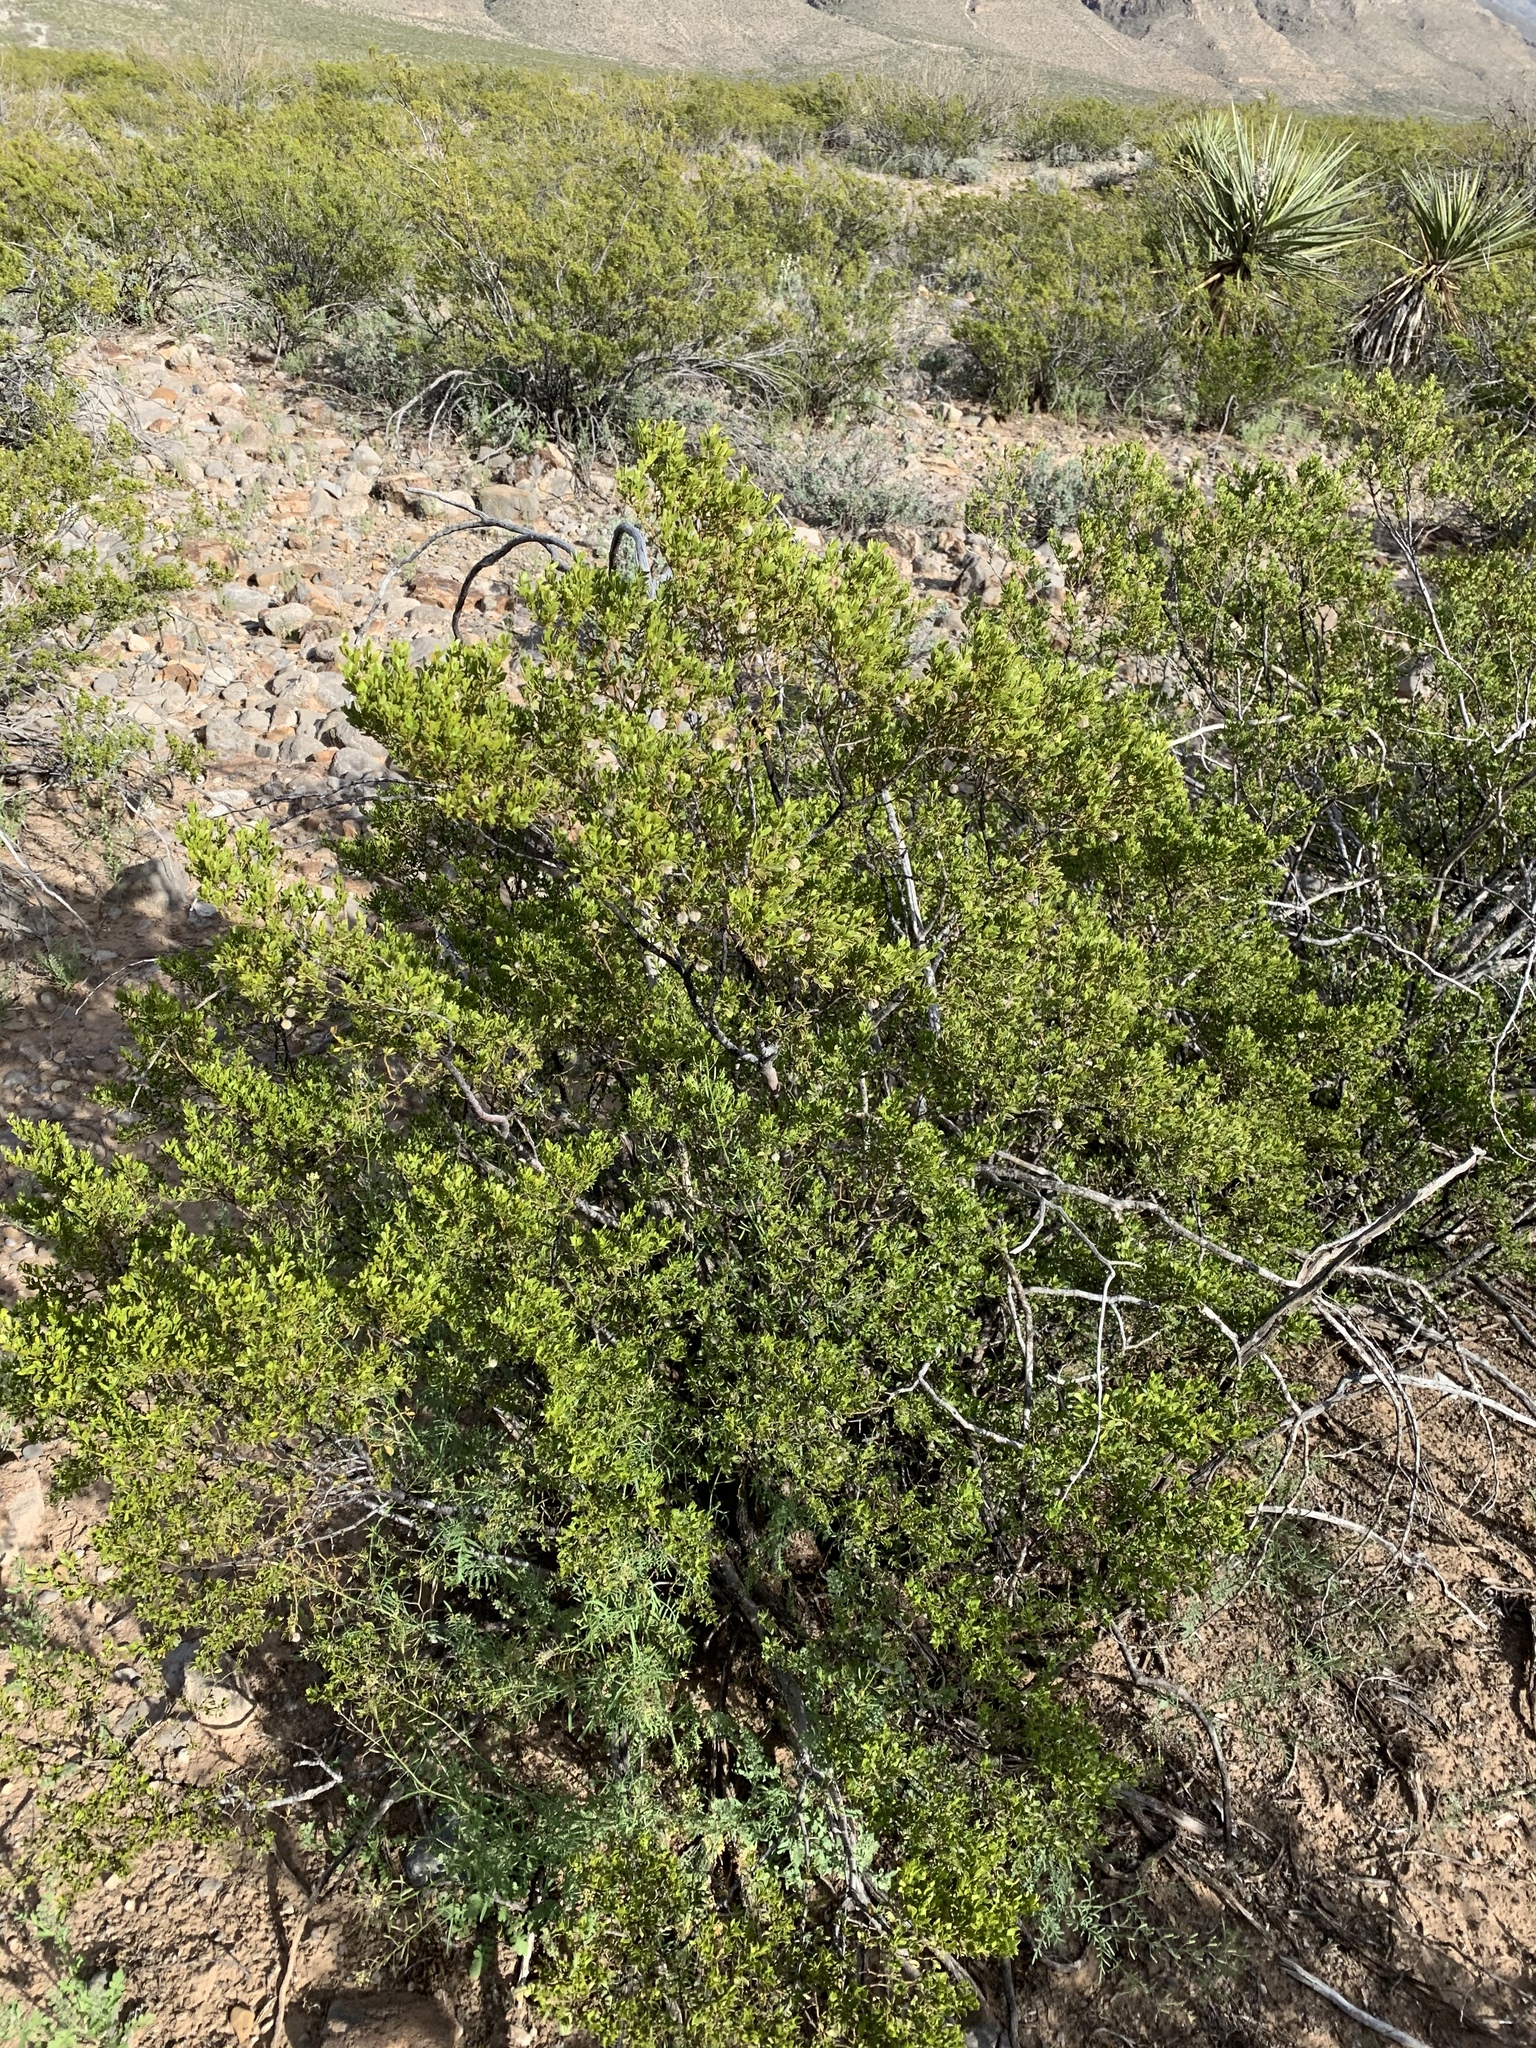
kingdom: Plantae
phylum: Tracheophyta
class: Magnoliopsida
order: Zygophyllales
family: Zygophyllaceae
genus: Larrea
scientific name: Larrea tridentata
